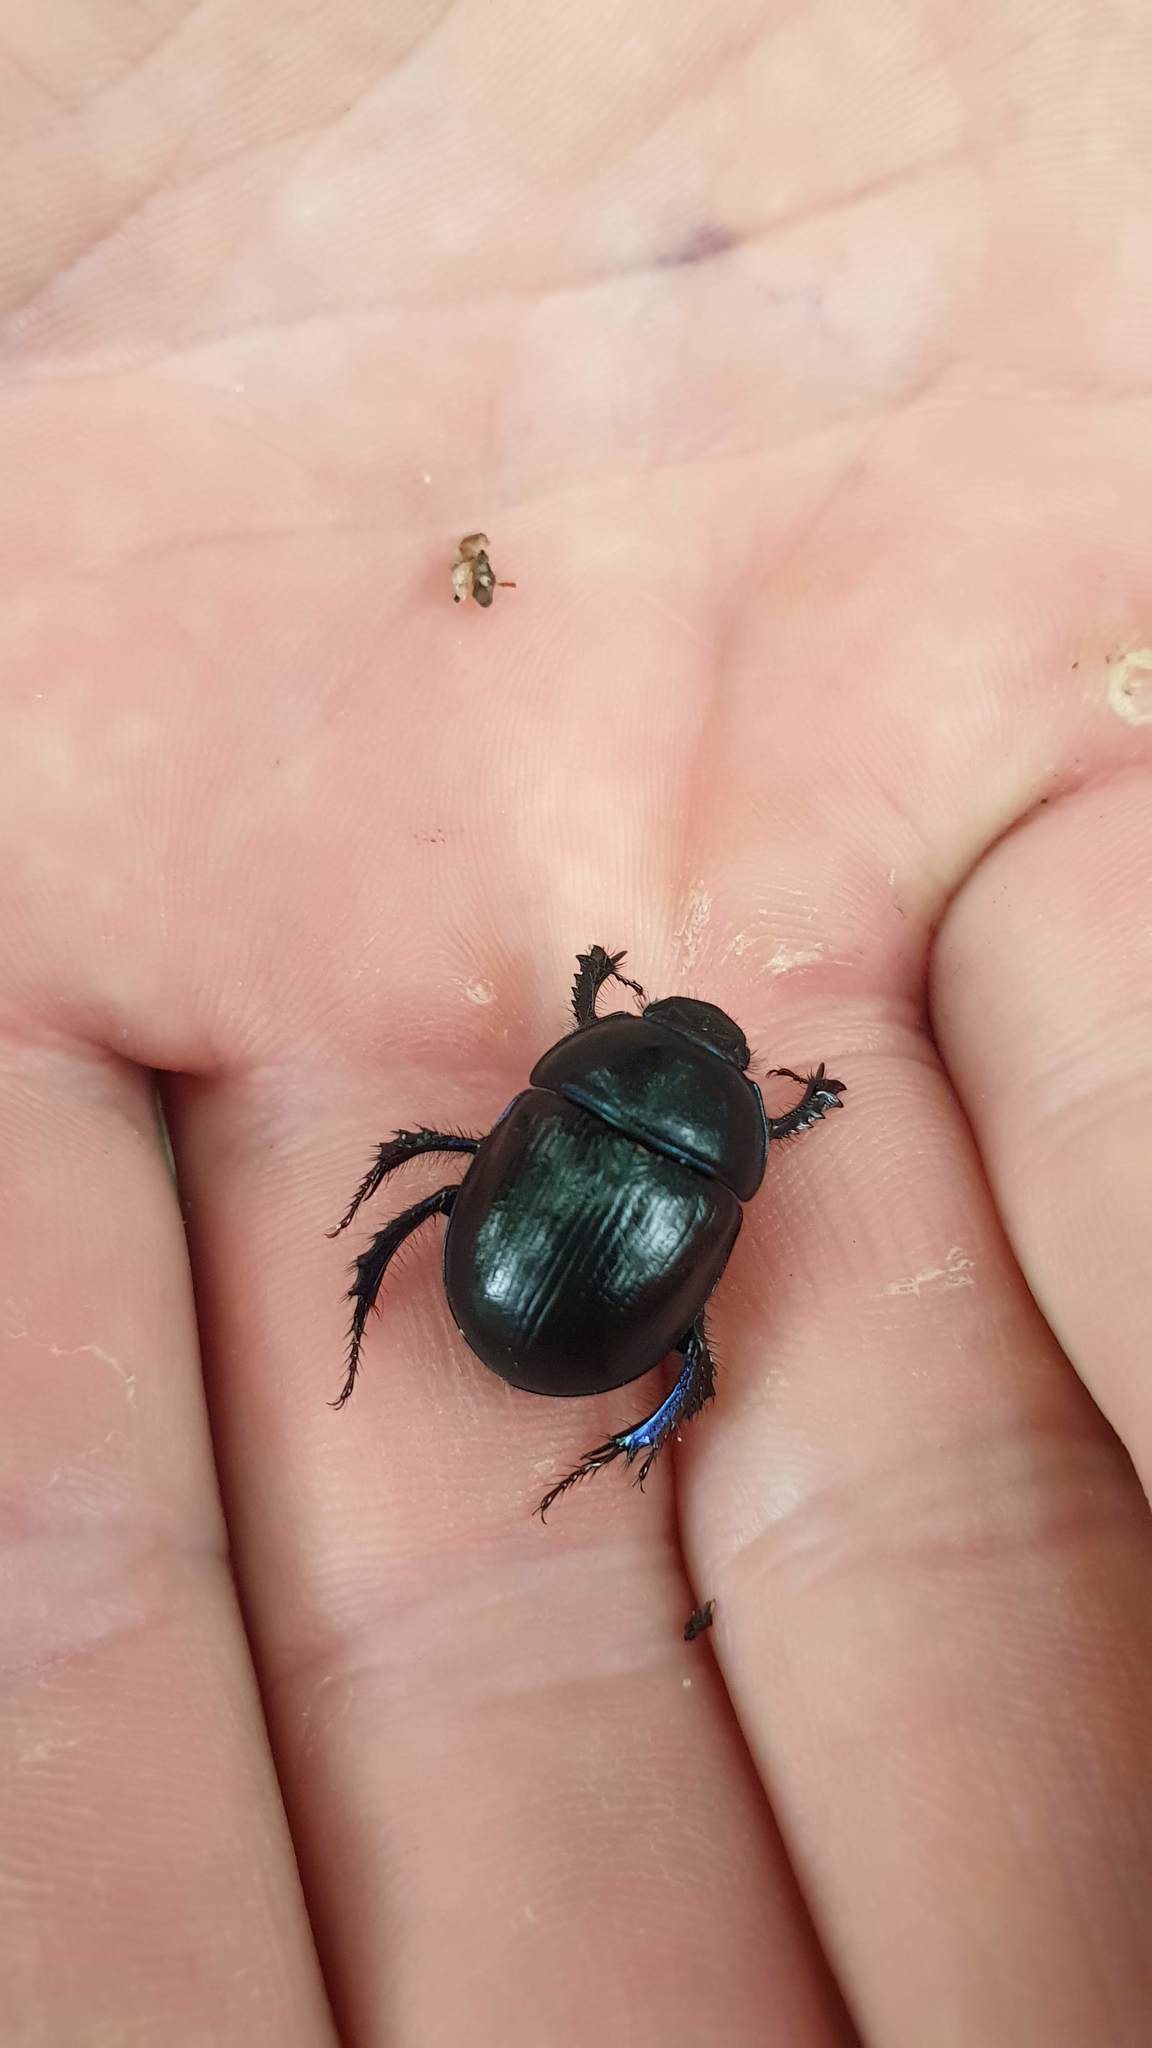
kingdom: Animalia
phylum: Arthropoda
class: Insecta
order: Coleoptera
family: Geotrupidae
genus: Anoplotrupes
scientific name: Anoplotrupes stercorosus
